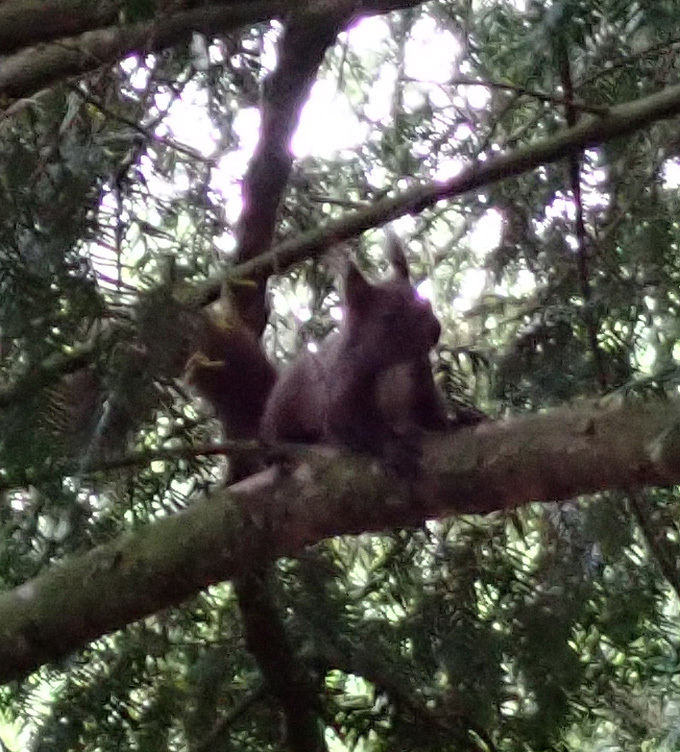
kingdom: Animalia
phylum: Chordata
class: Mammalia
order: Rodentia
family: Sciuridae
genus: Sciurus
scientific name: Sciurus vulgaris
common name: Eurasian red squirrel
